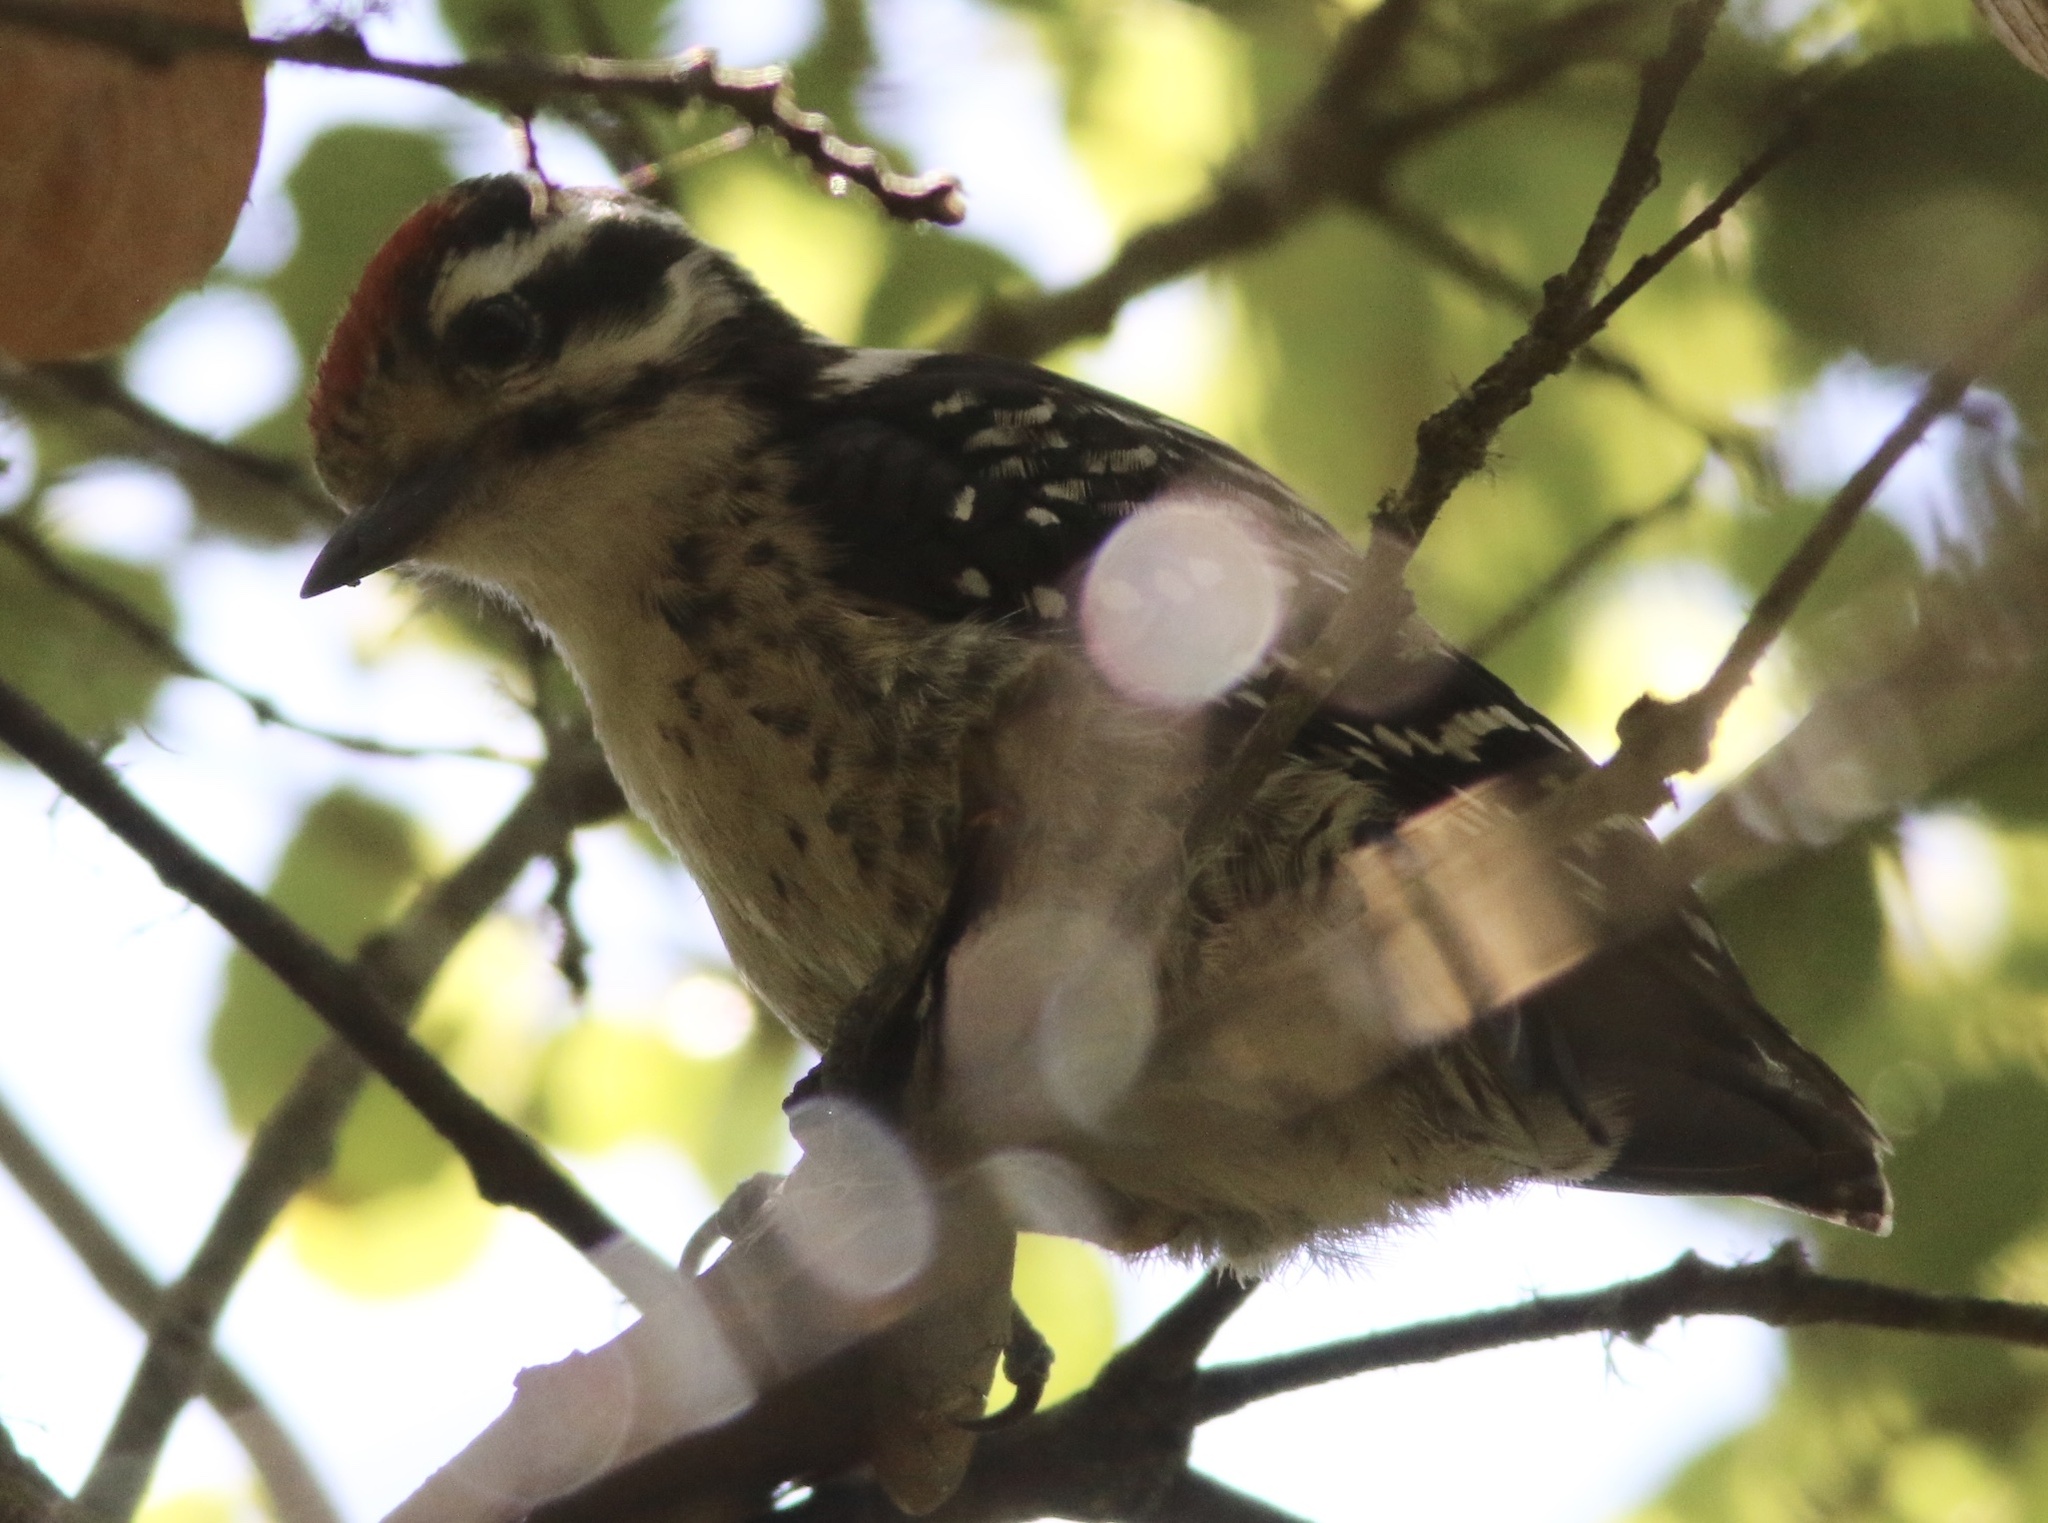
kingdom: Animalia
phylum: Chordata
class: Aves
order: Piciformes
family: Picidae
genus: Dryobates
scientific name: Dryobates nuttallii
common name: Nuttall's woodpecker
